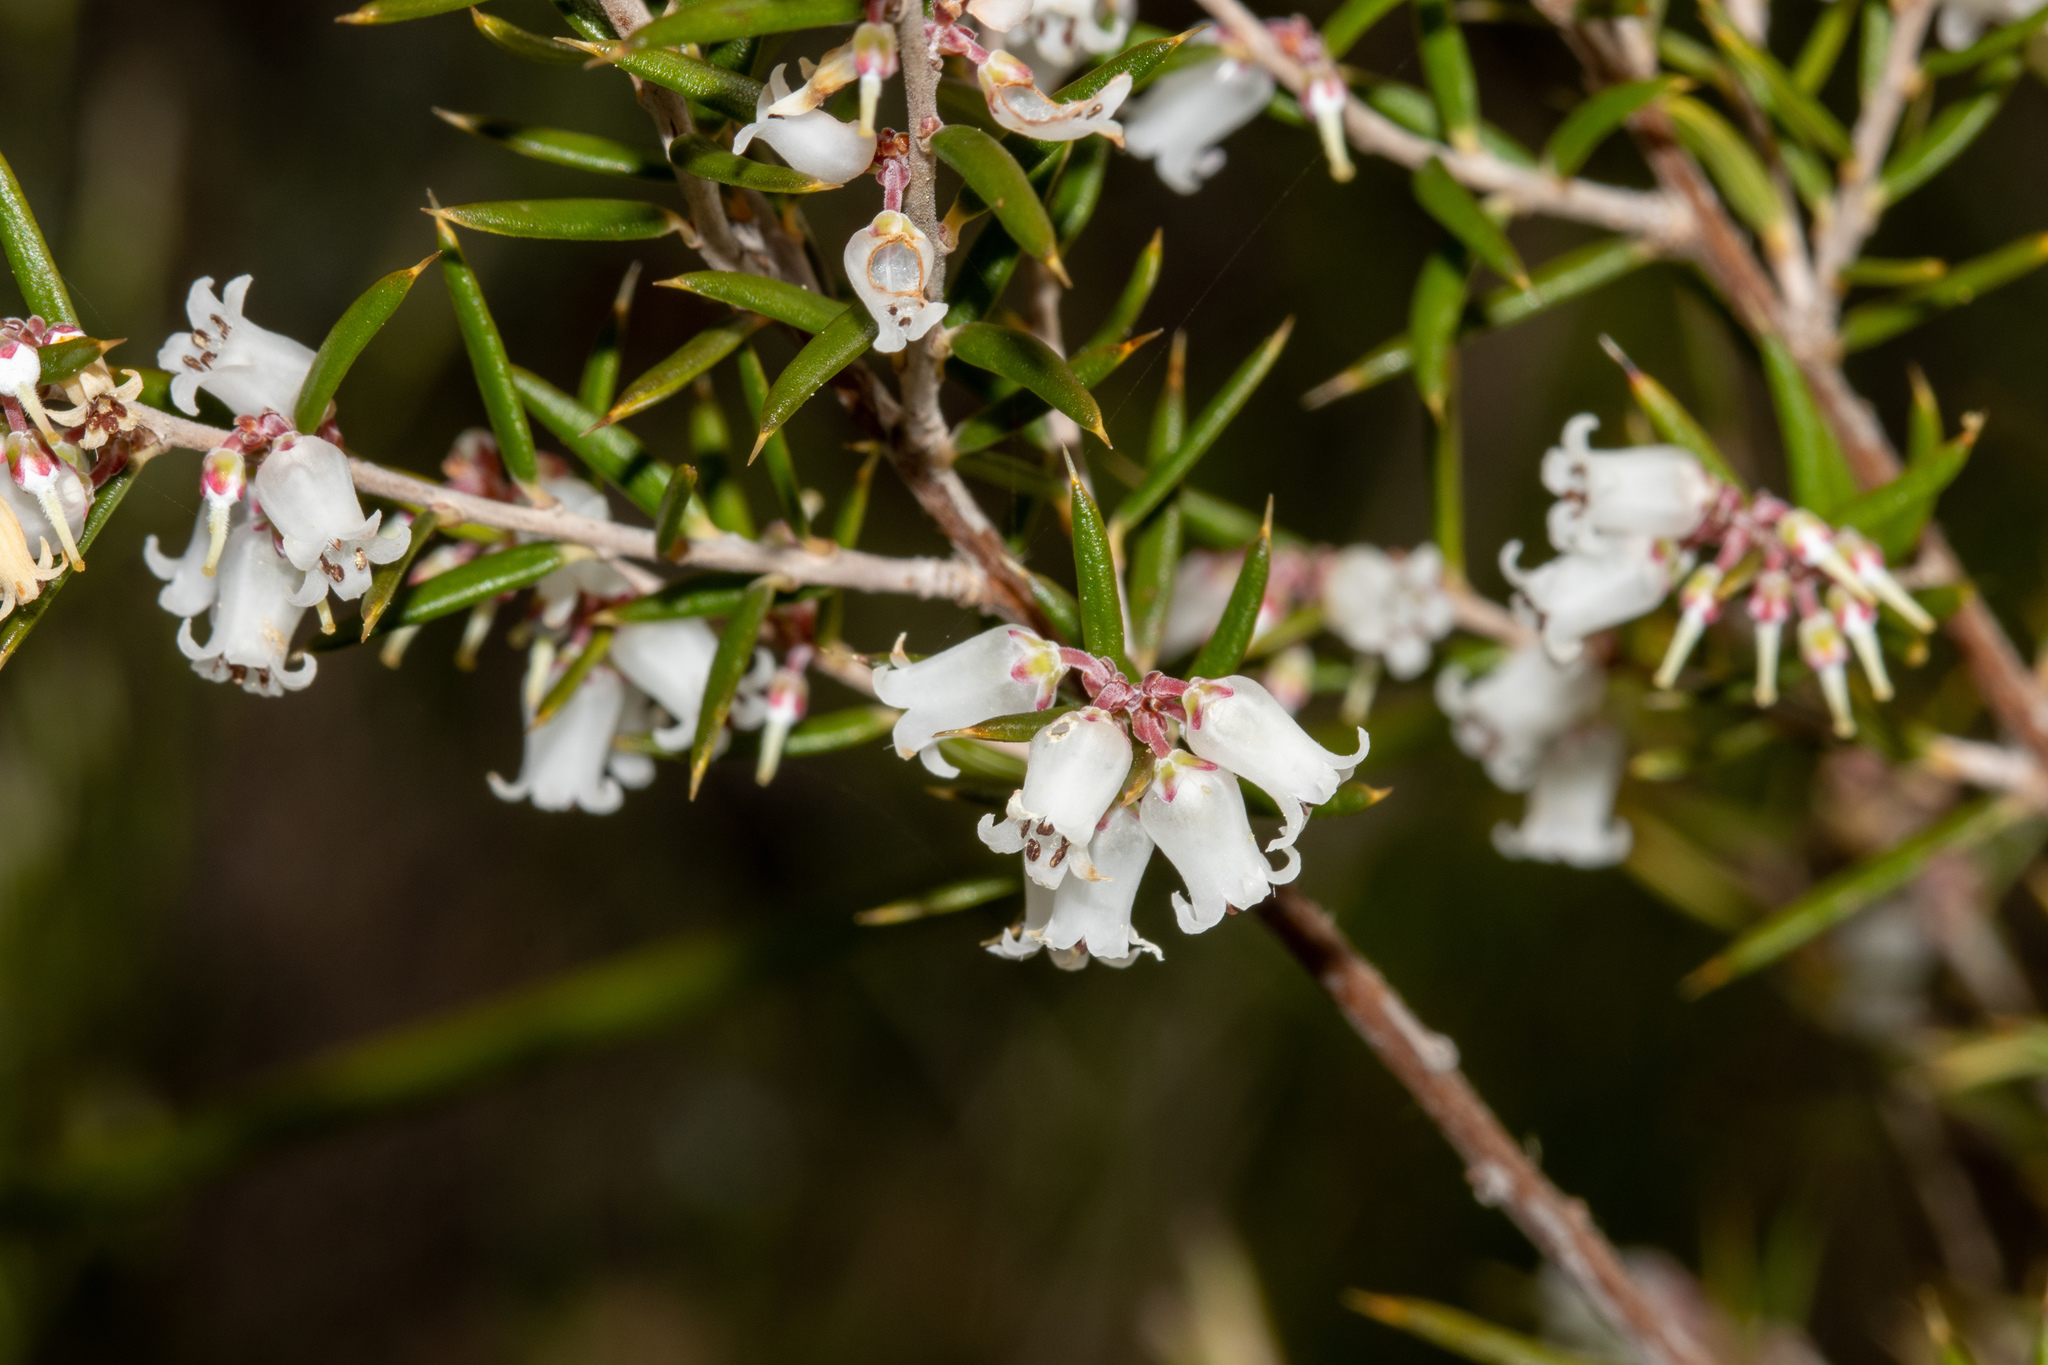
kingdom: Plantae
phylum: Tracheophyta
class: Magnoliopsida
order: Ericales
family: Ericaceae
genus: Lissanthe
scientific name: Lissanthe strigosa
